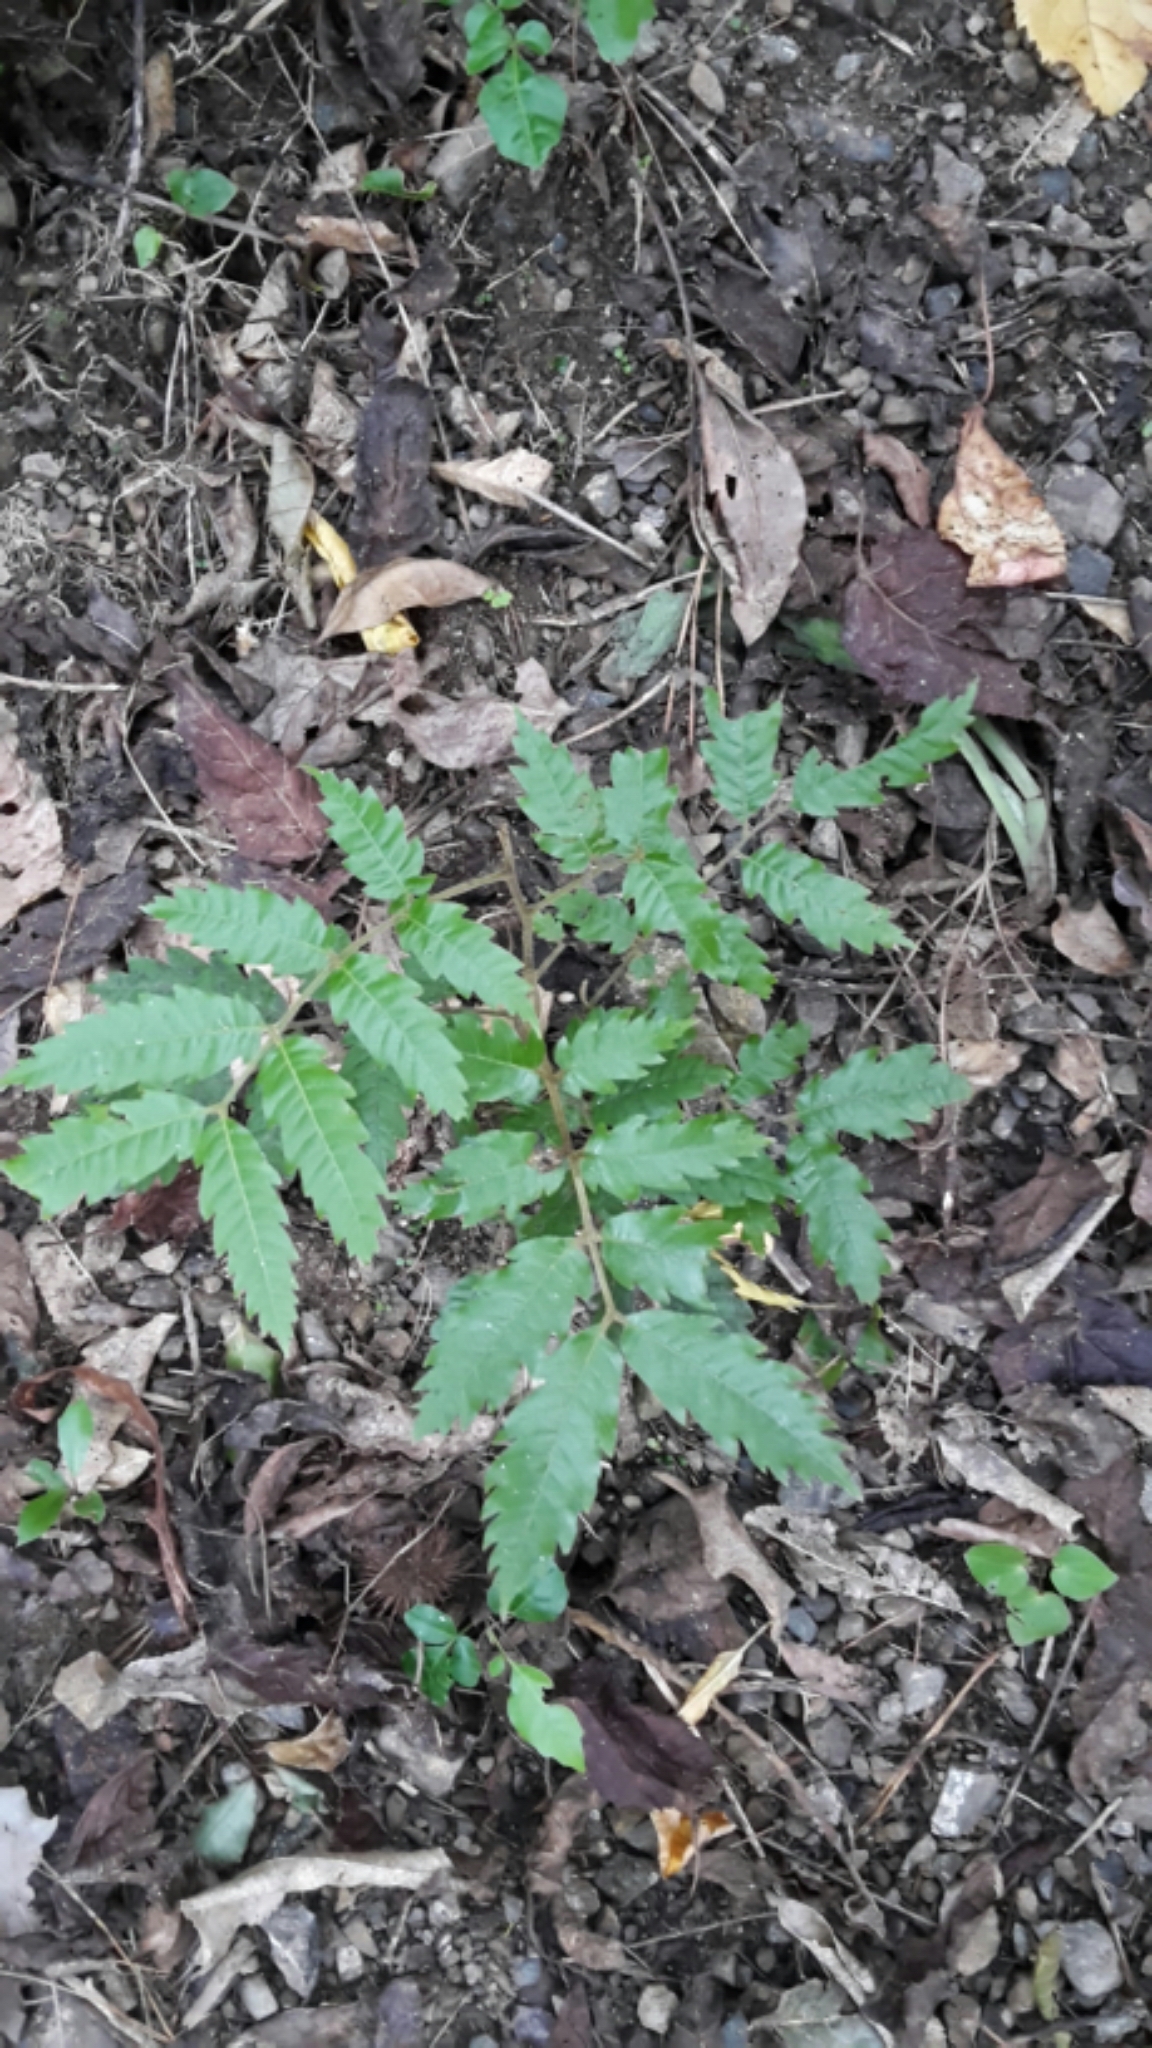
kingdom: Plantae
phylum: Tracheophyta
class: Magnoliopsida
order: Sapindales
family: Sapindaceae
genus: Alectryon
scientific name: Alectryon excelsus
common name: Three kings titoki
